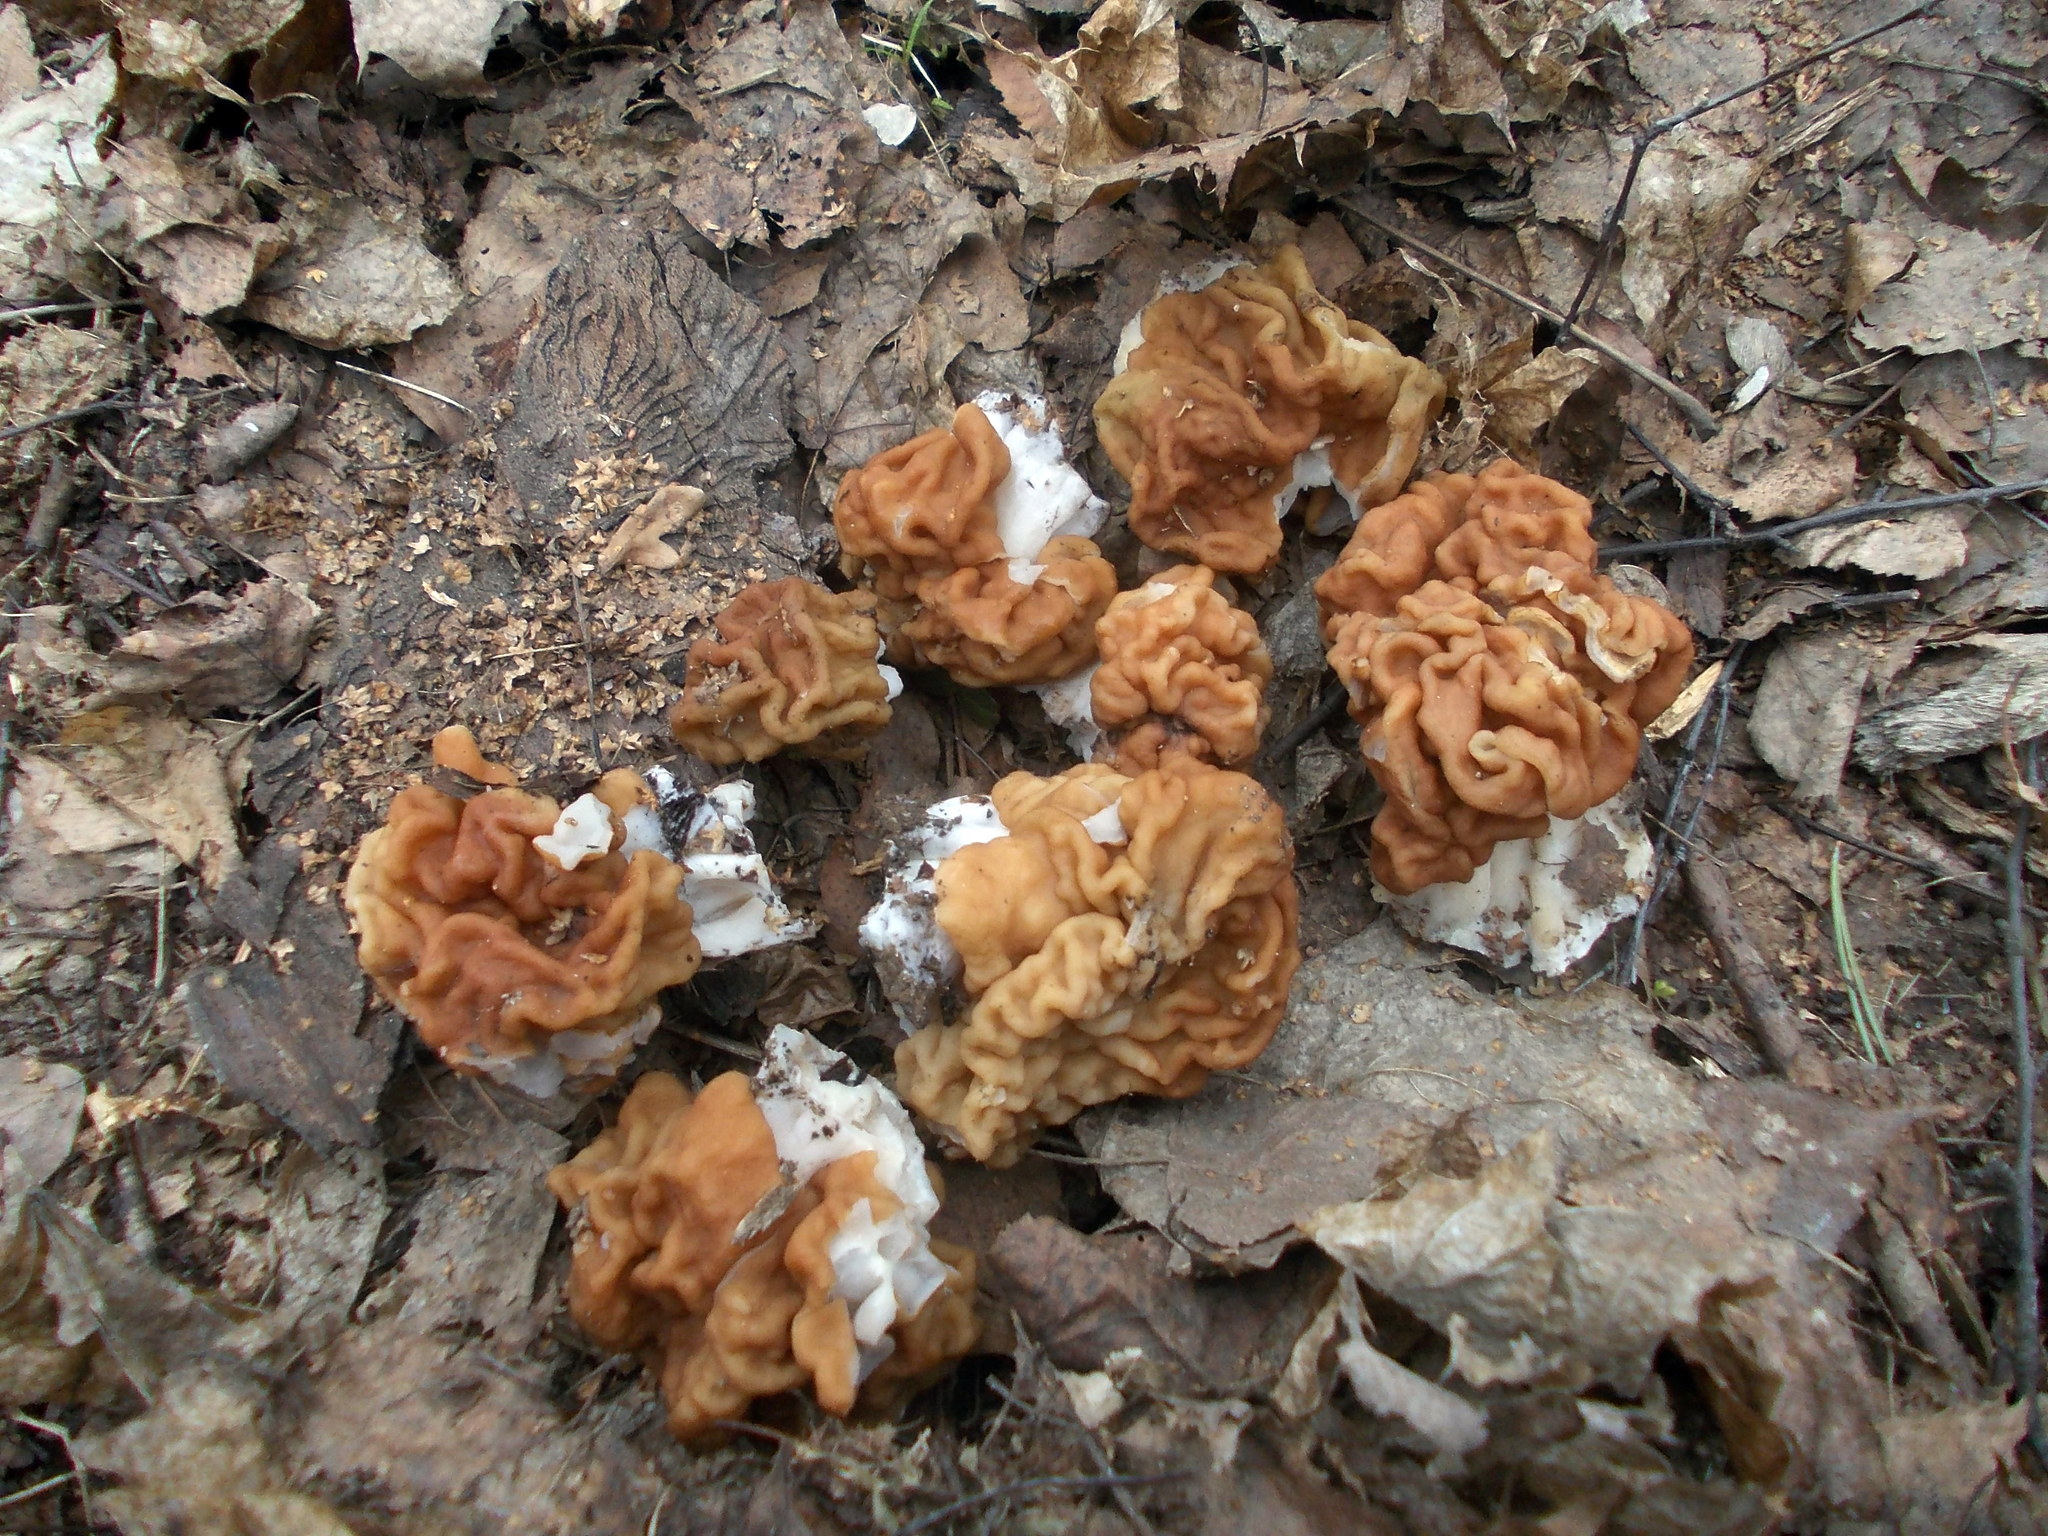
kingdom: Fungi
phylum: Ascomycota
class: Pezizomycetes
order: Pezizales
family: Discinaceae
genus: Gyromitra
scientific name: Gyromitra gigas
